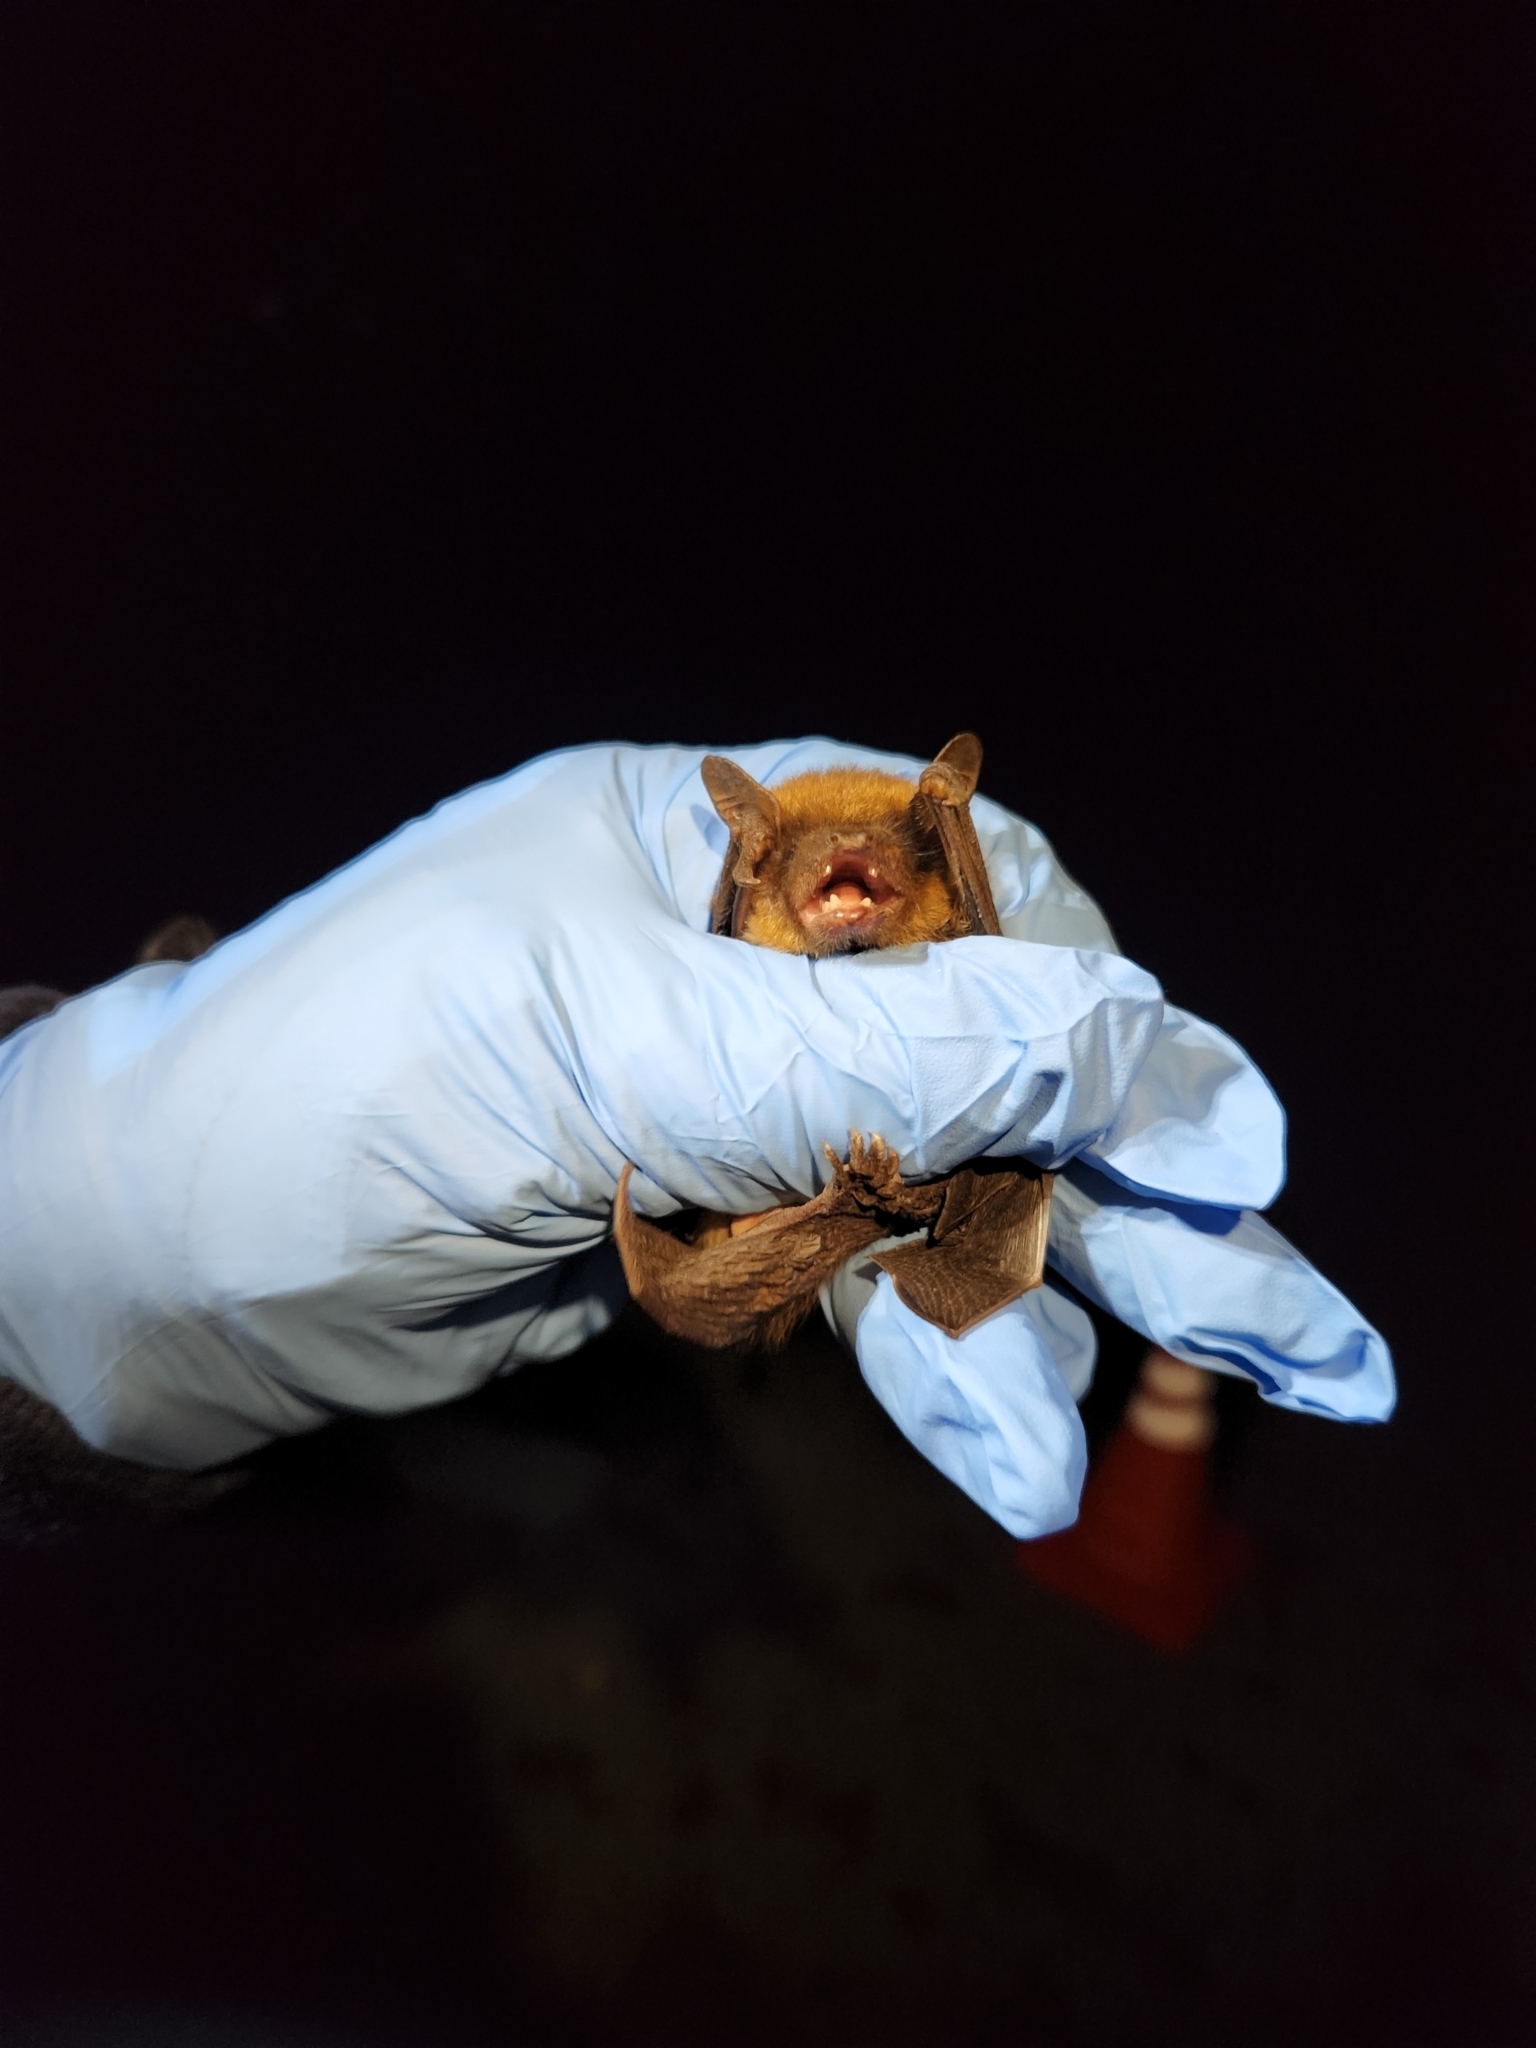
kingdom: Animalia
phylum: Chordata
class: Mammalia
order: Chiroptera
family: Vespertilionidae
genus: Eptesicus
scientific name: Eptesicus fuscus
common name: Big brown bat
